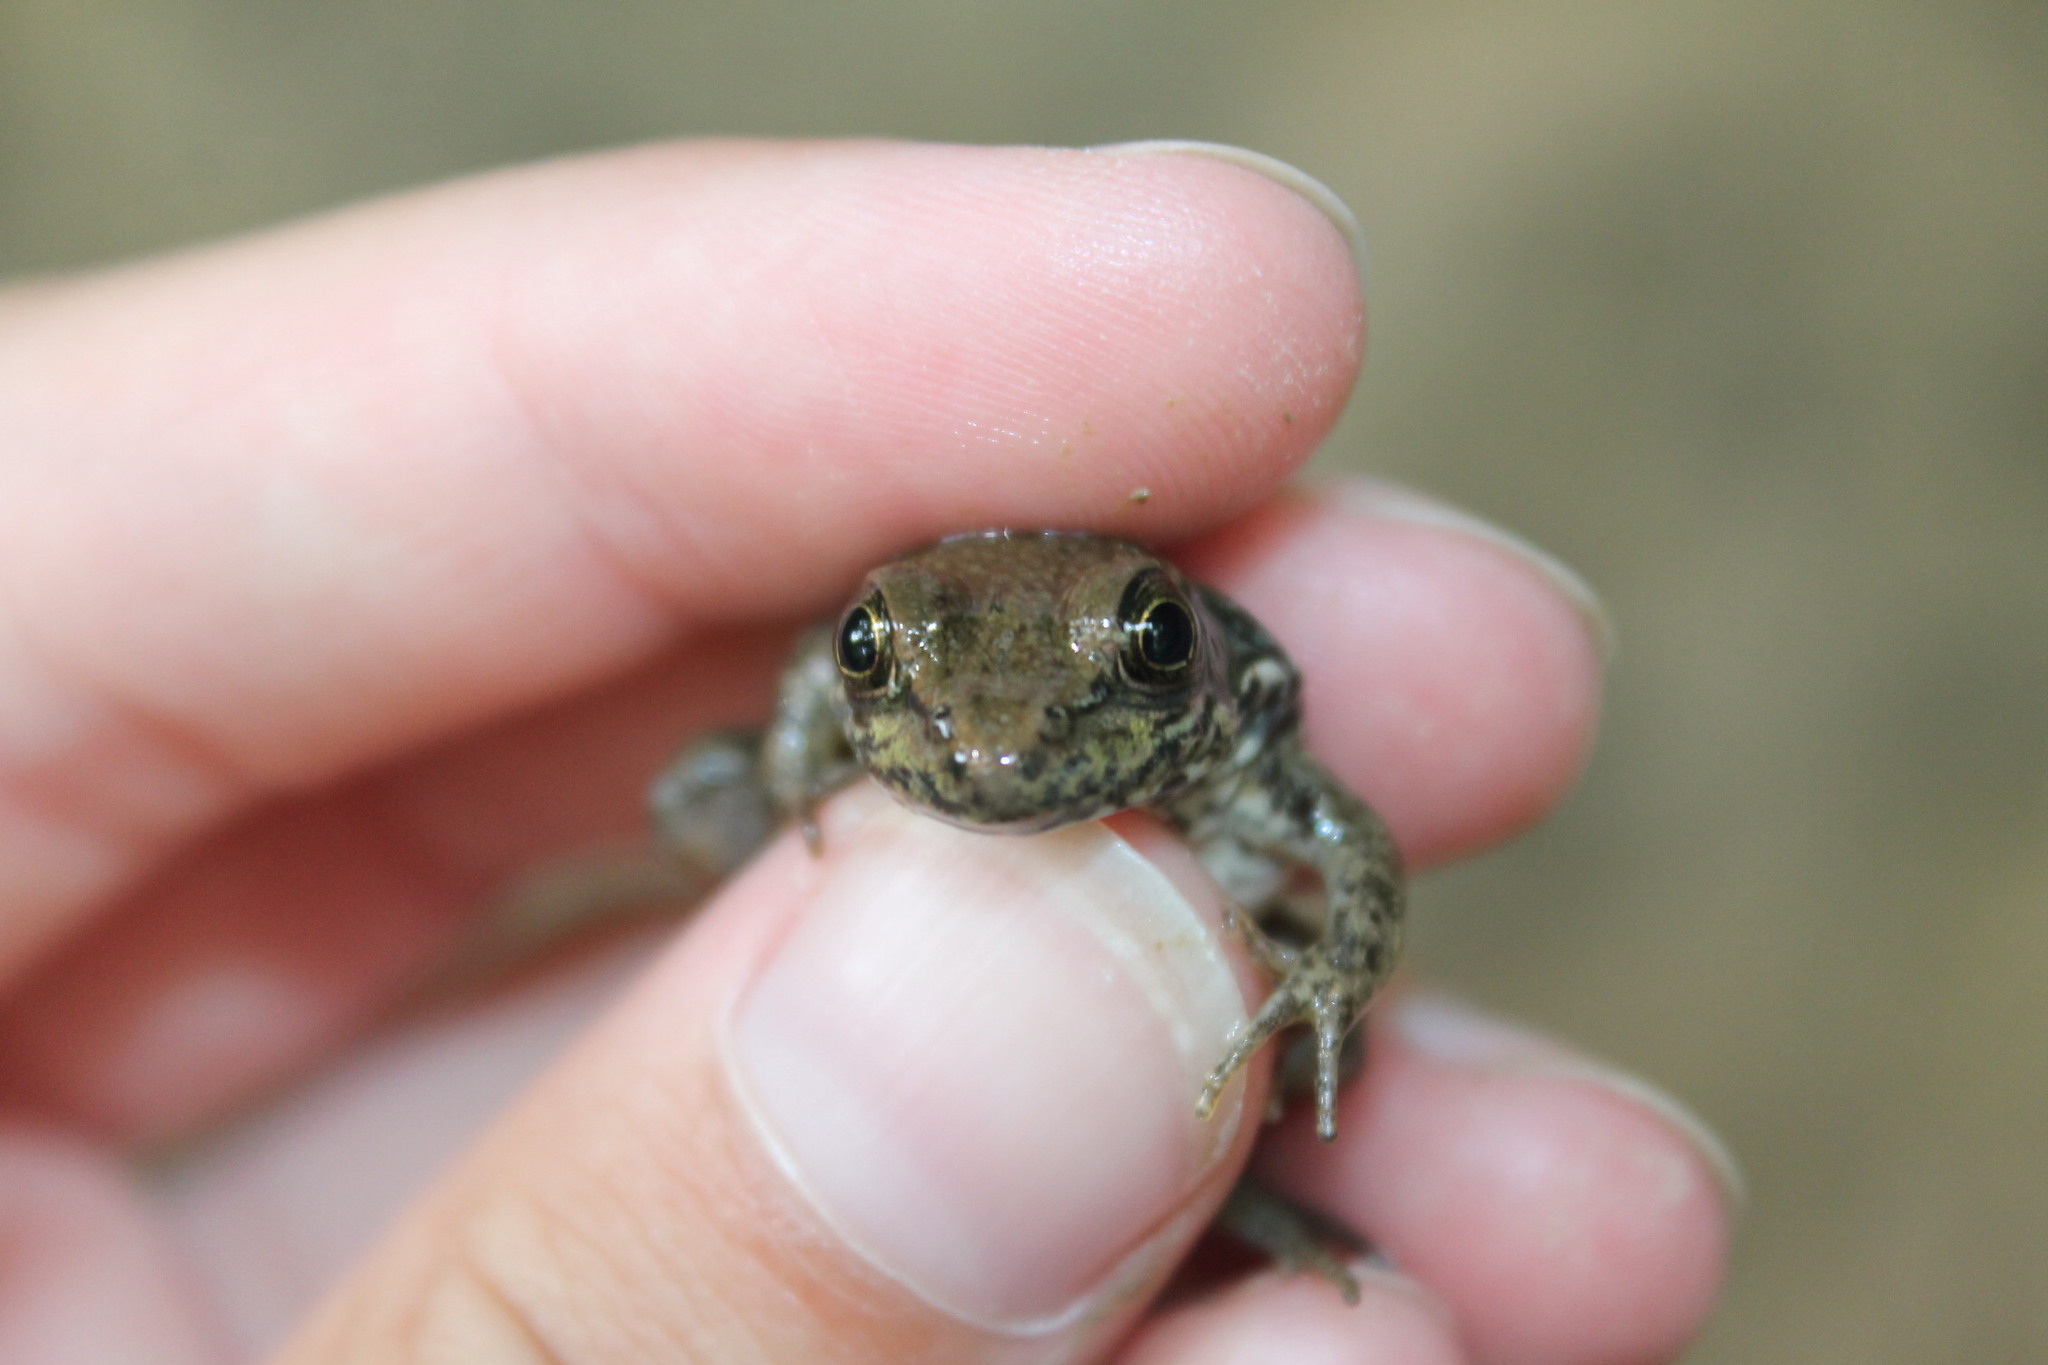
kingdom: Animalia
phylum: Chordata
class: Amphibia
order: Anura
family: Ranidae
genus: Lithobates
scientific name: Lithobates clamitans
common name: Green frog
